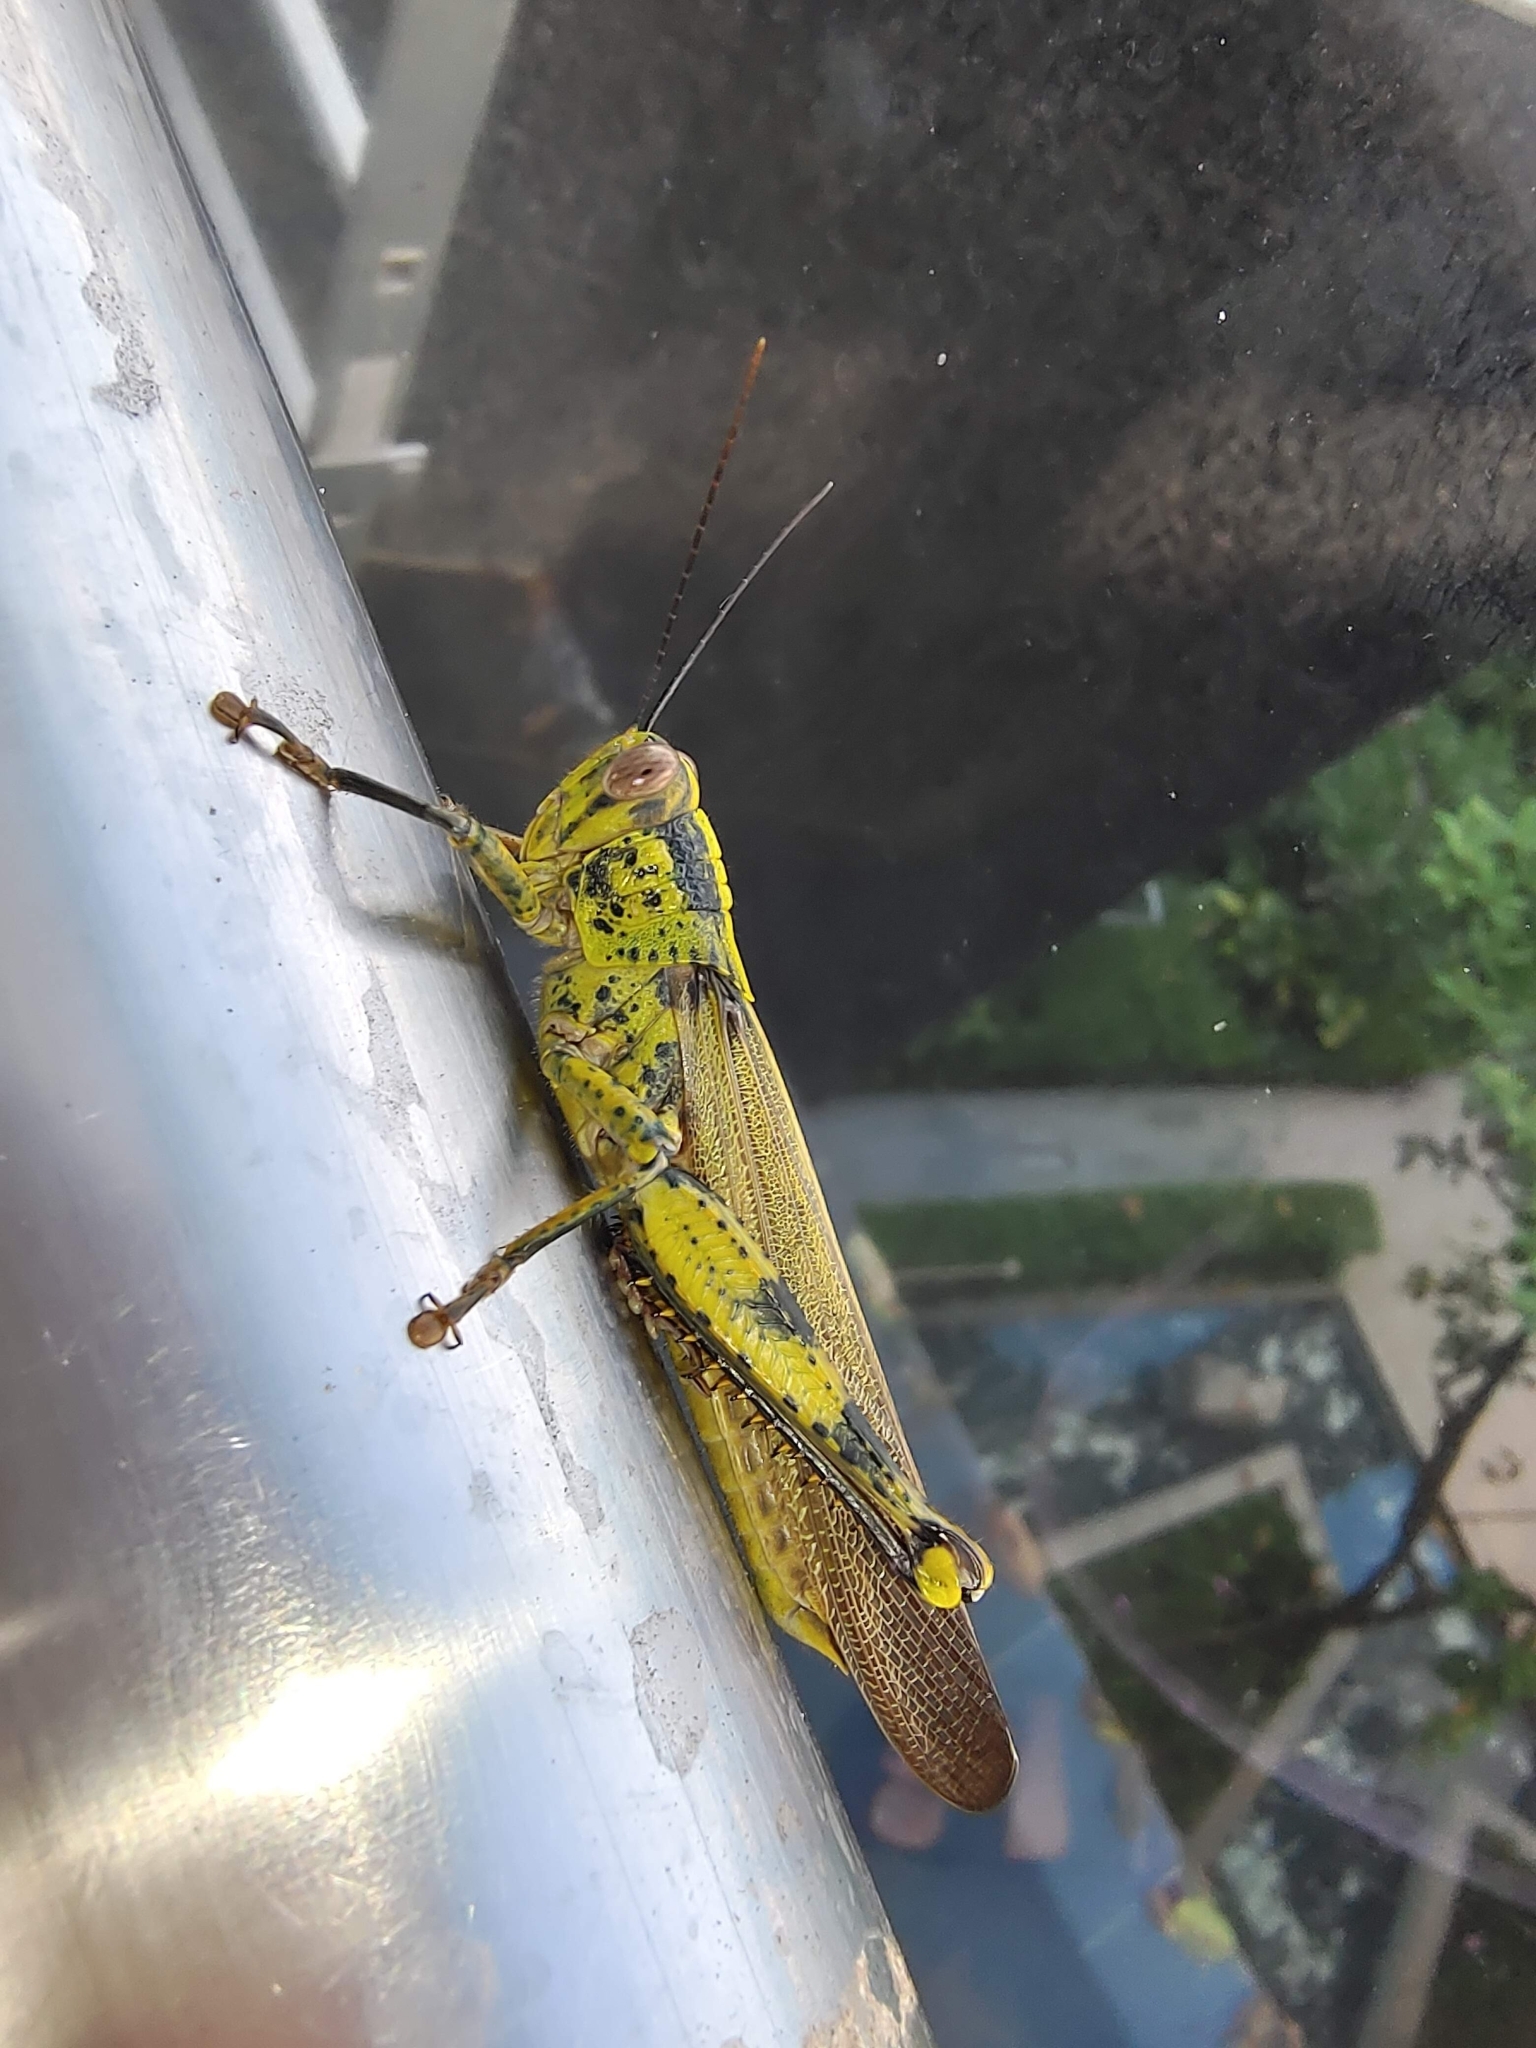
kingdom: Animalia
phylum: Arthropoda
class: Insecta
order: Orthoptera
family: Acrididae
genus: Valanga
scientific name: Valanga nigricornis
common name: Javanese bird grasshopper
